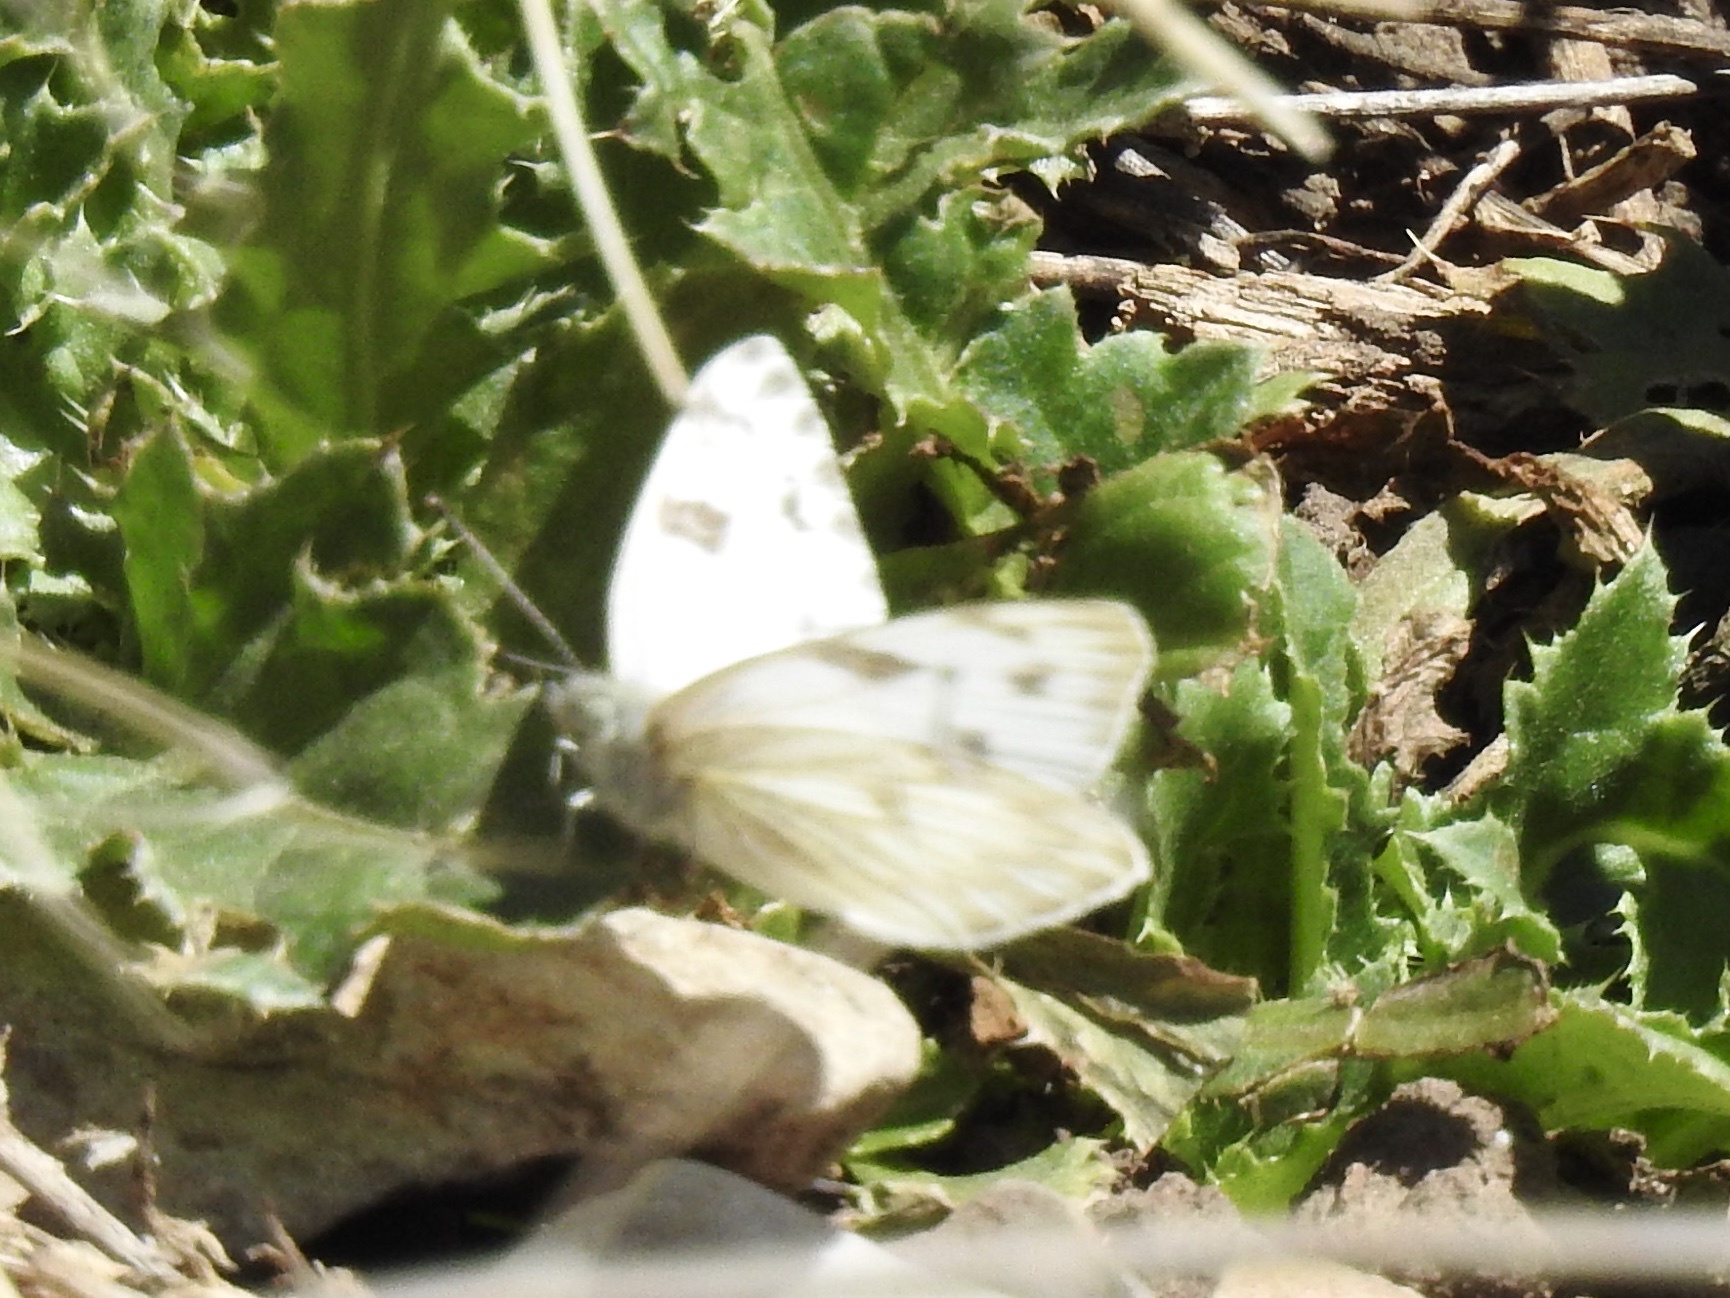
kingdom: Animalia
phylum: Arthropoda
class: Insecta
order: Lepidoptera
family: Pieridae
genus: Pontia
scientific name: Pontia protodice
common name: Checkered white
